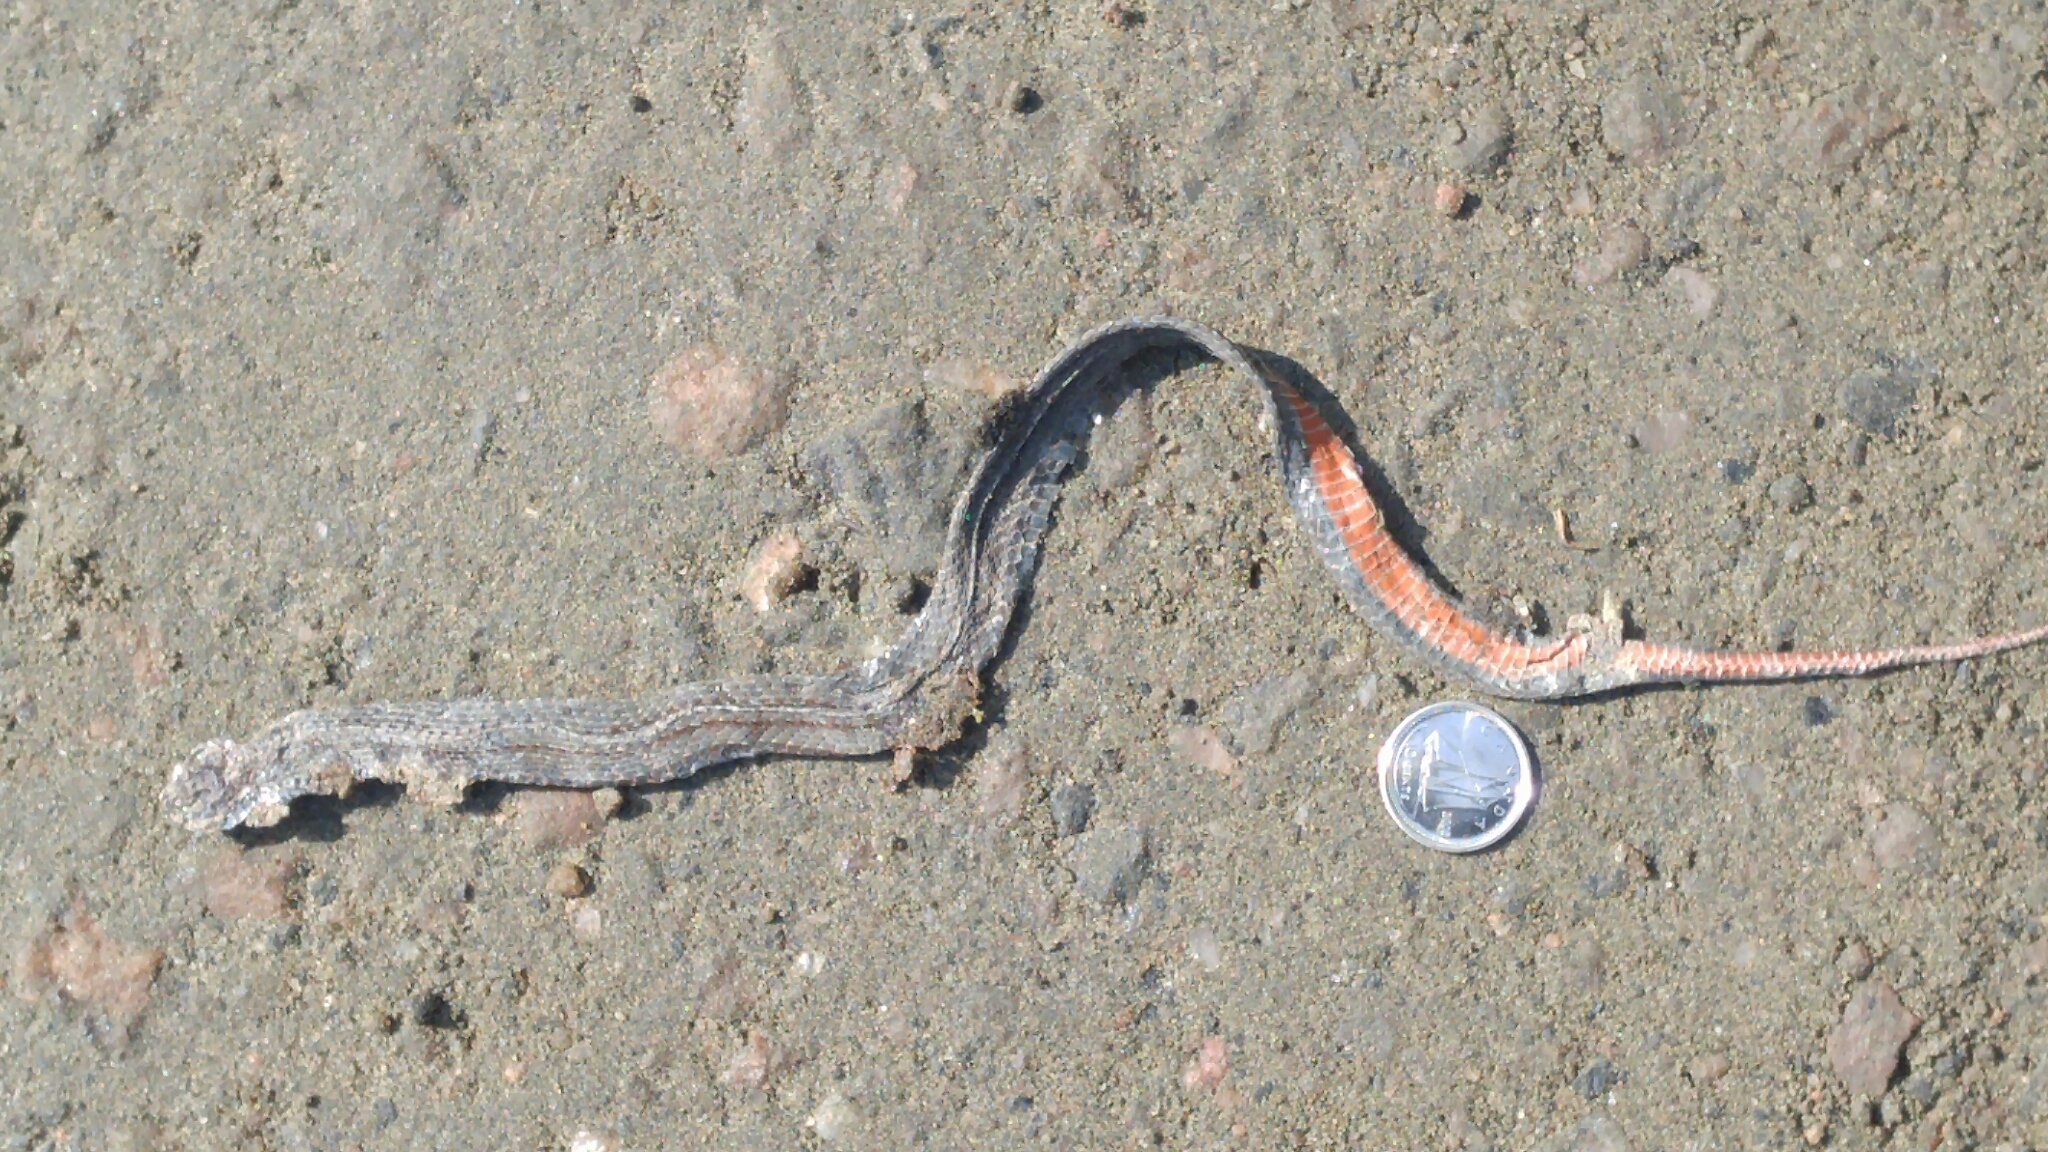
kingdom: Animalia
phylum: Chordata
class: Squamata
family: Colubridae
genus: Storeria
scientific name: Storeria occipitomaculata
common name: Redbelly snake
